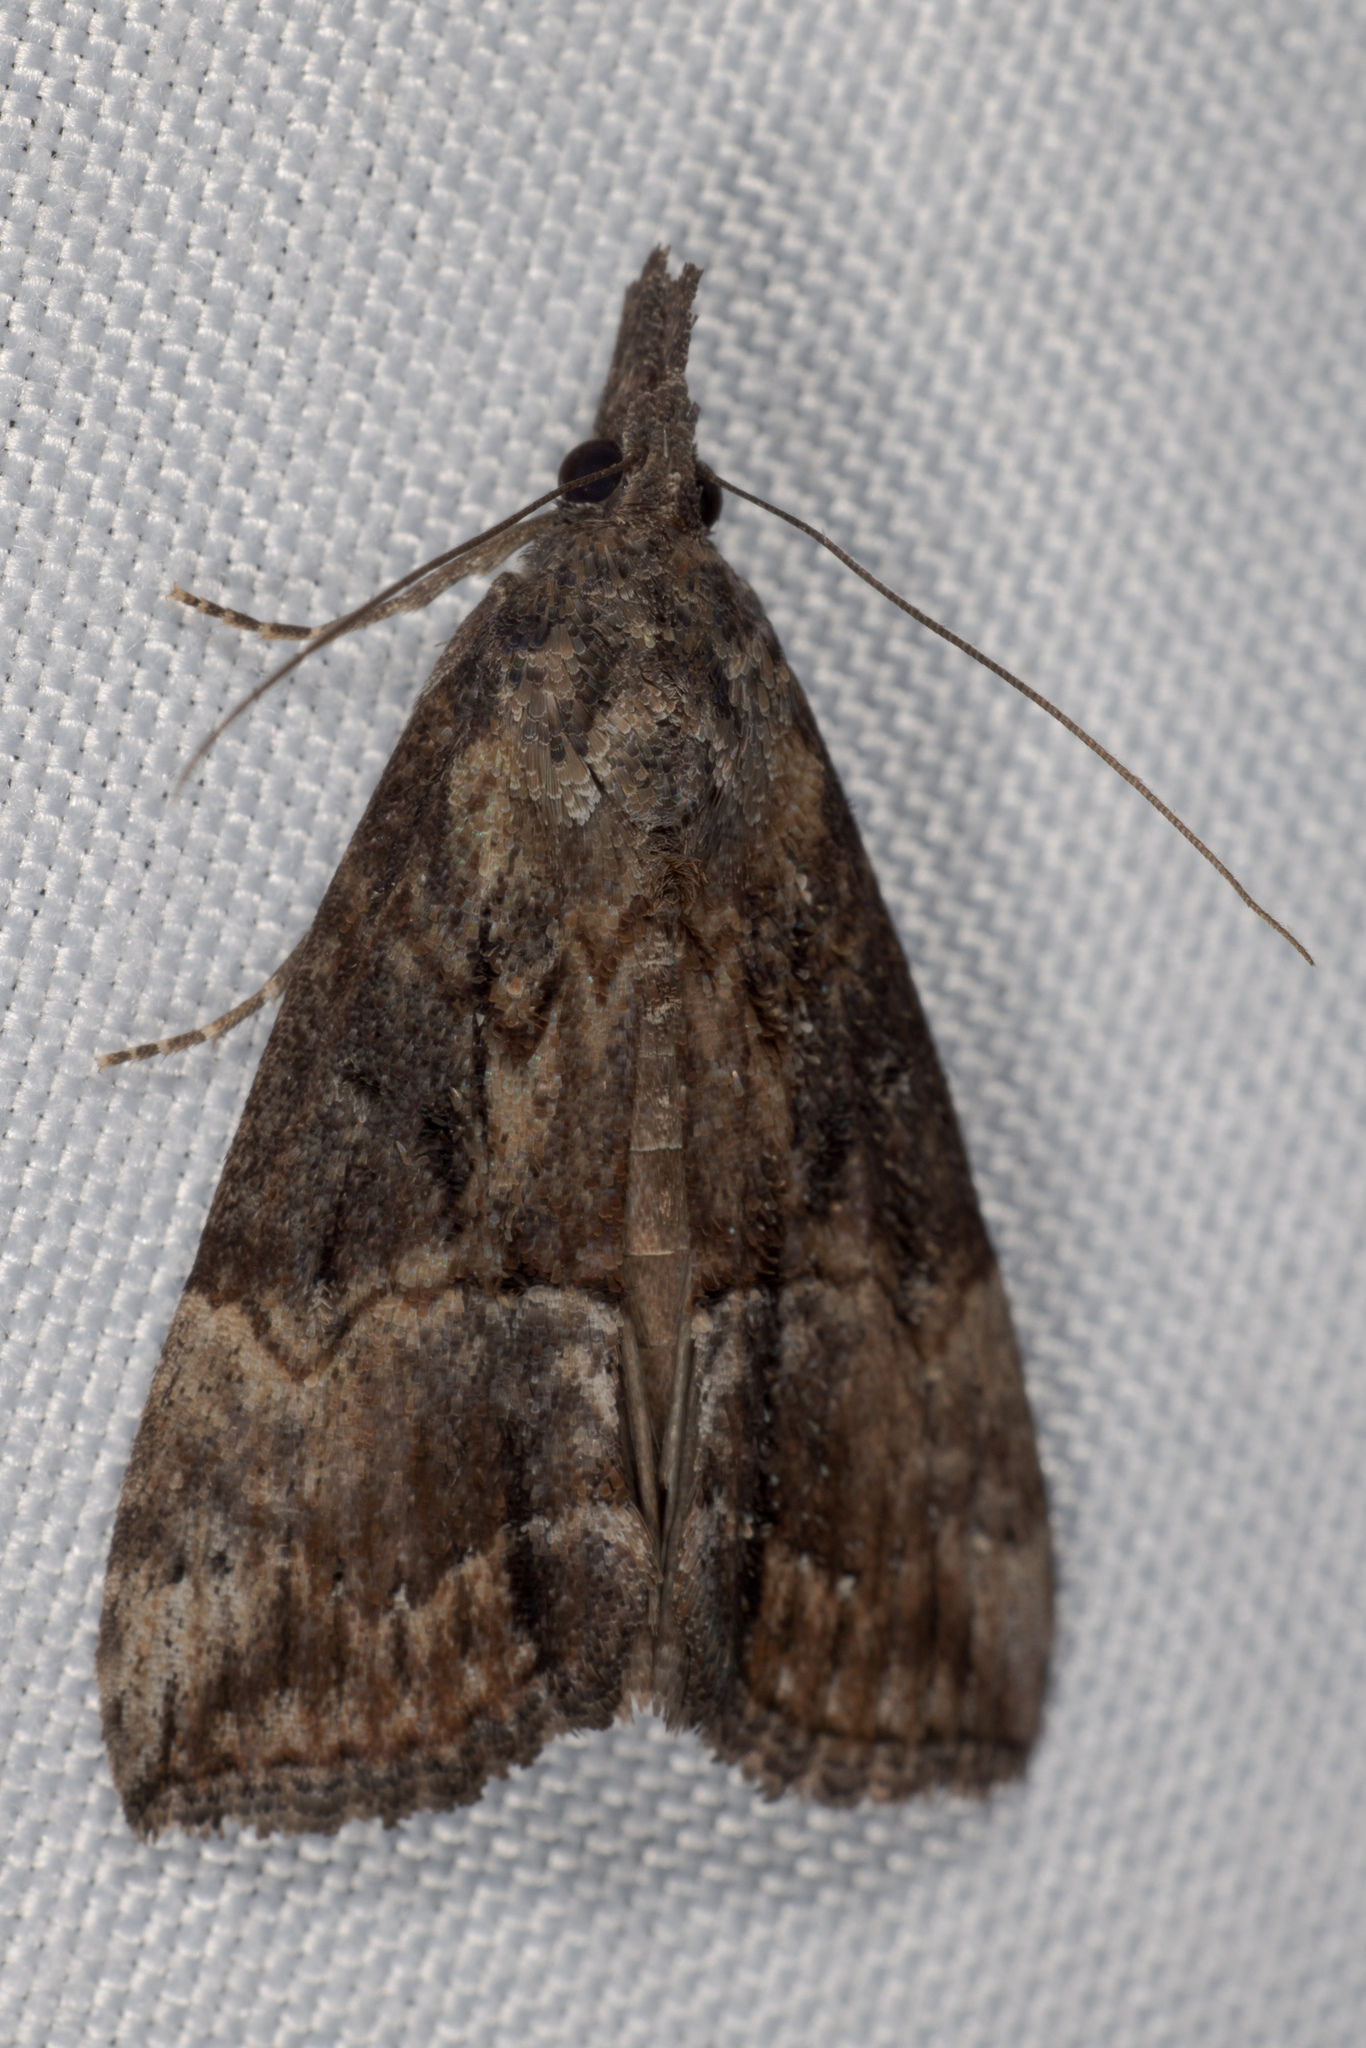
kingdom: Animalia
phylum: Arthropoda
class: Insecta
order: Lepidoptera
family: Erebidae
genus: Hypena
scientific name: Hypena scabra
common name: Green cloverworm
